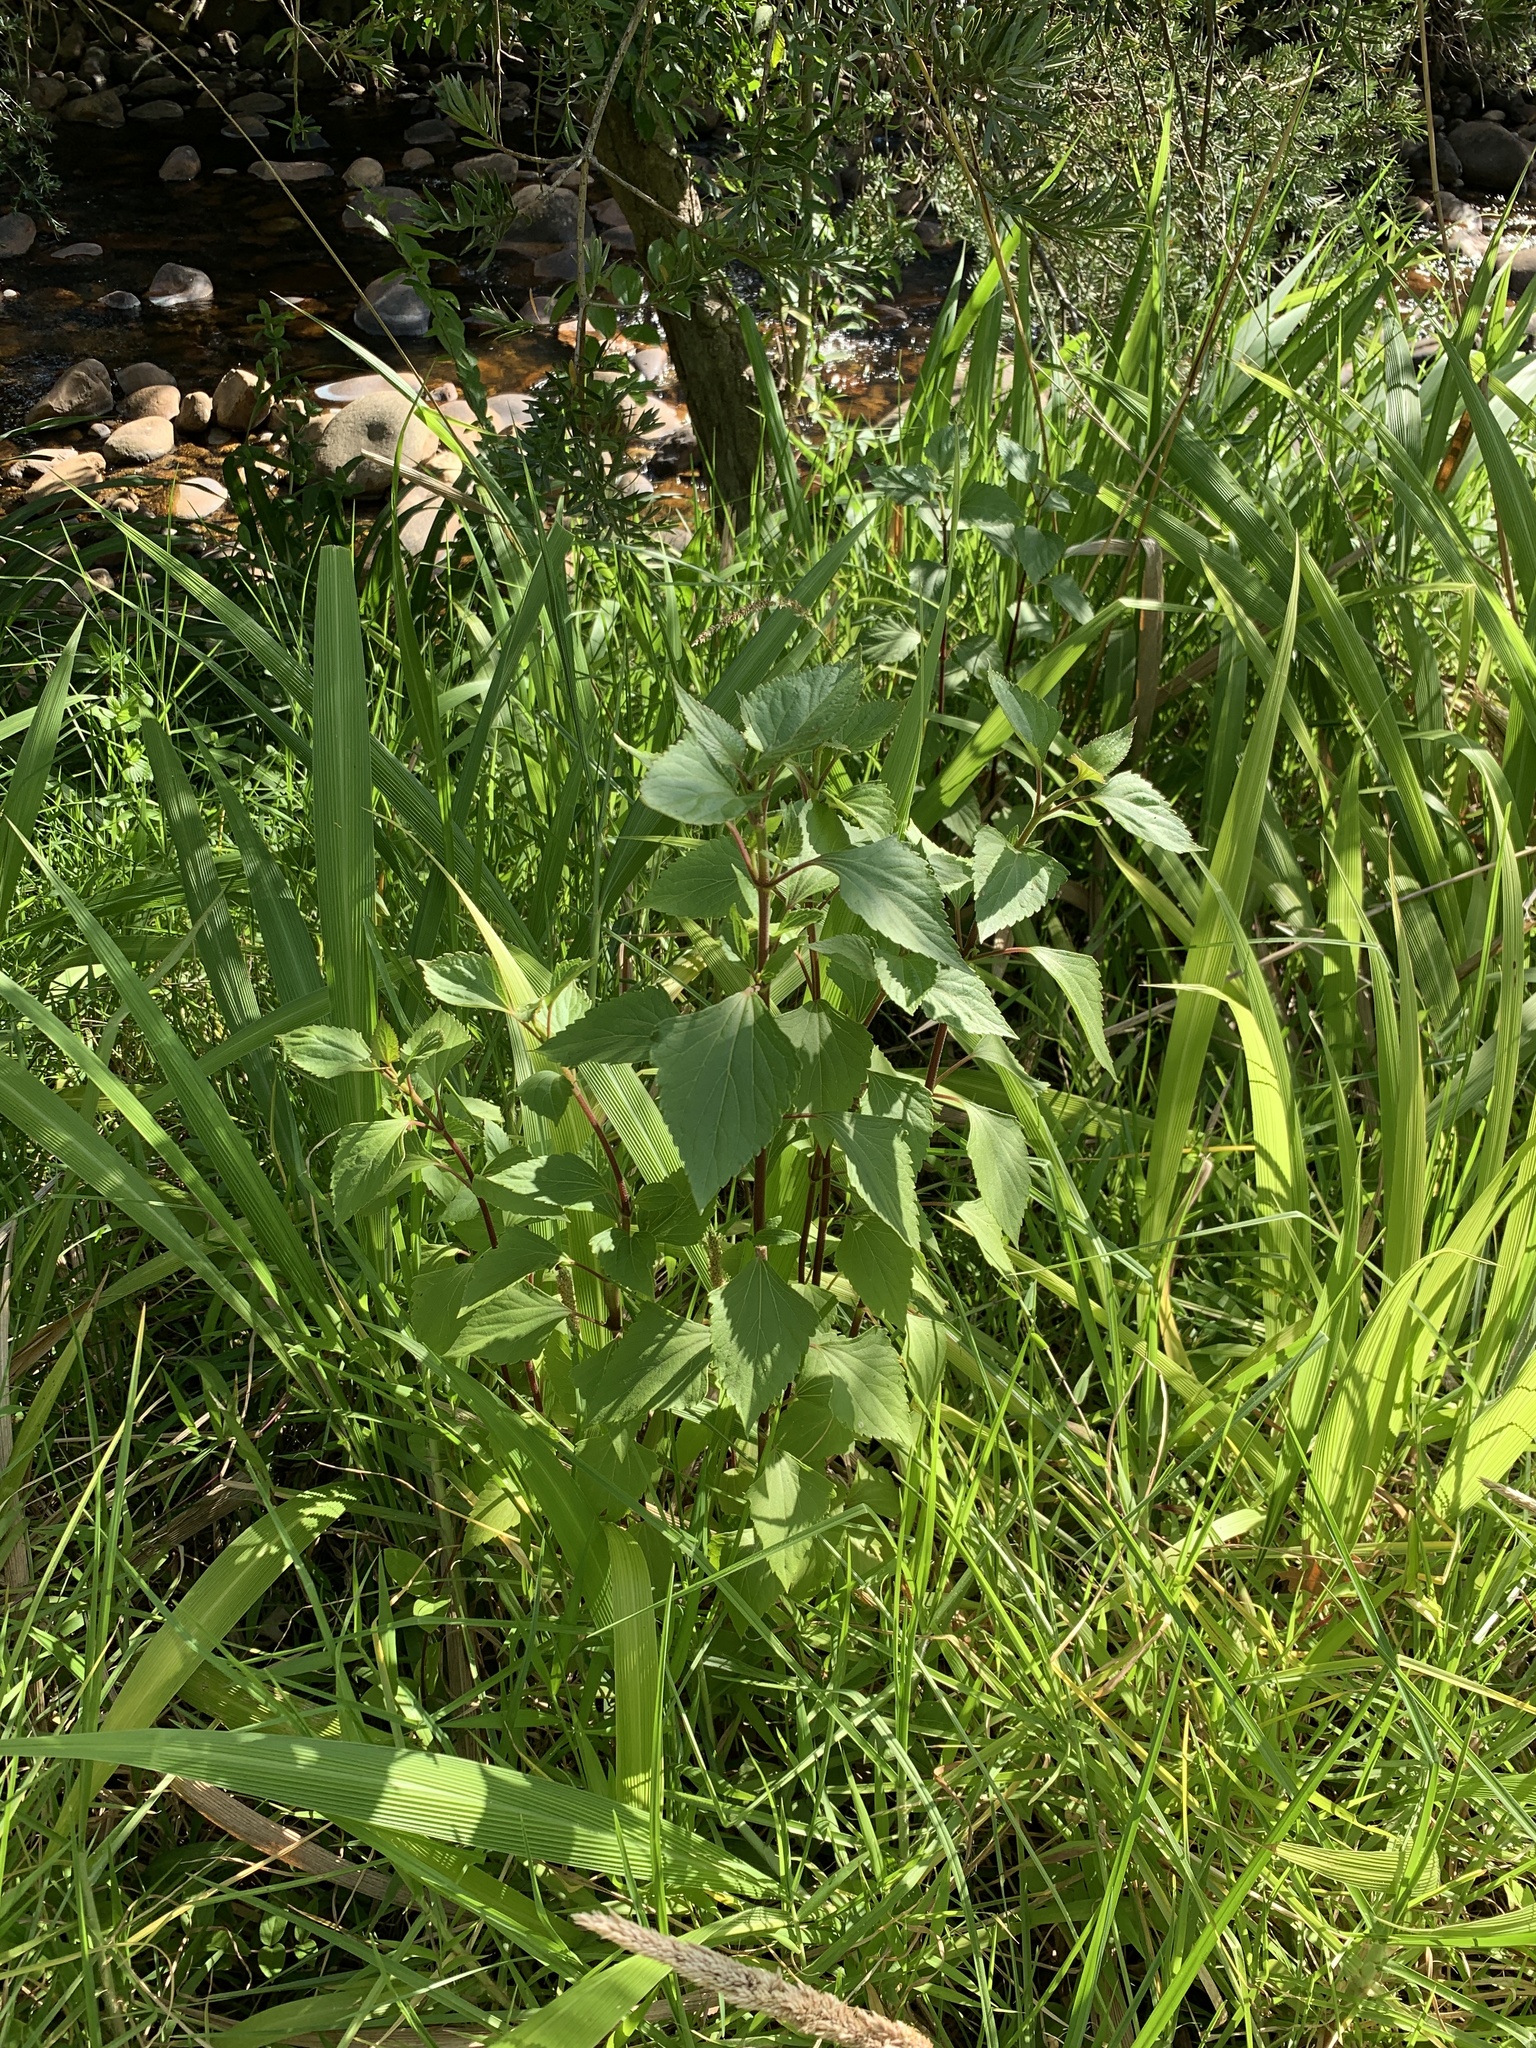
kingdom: Plantae
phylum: Tracheophyta
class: Magnoliopsida
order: Asterales
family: Asteraceae
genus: Ageratina
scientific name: Ageratina adenophora
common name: Sticky snakeroot
